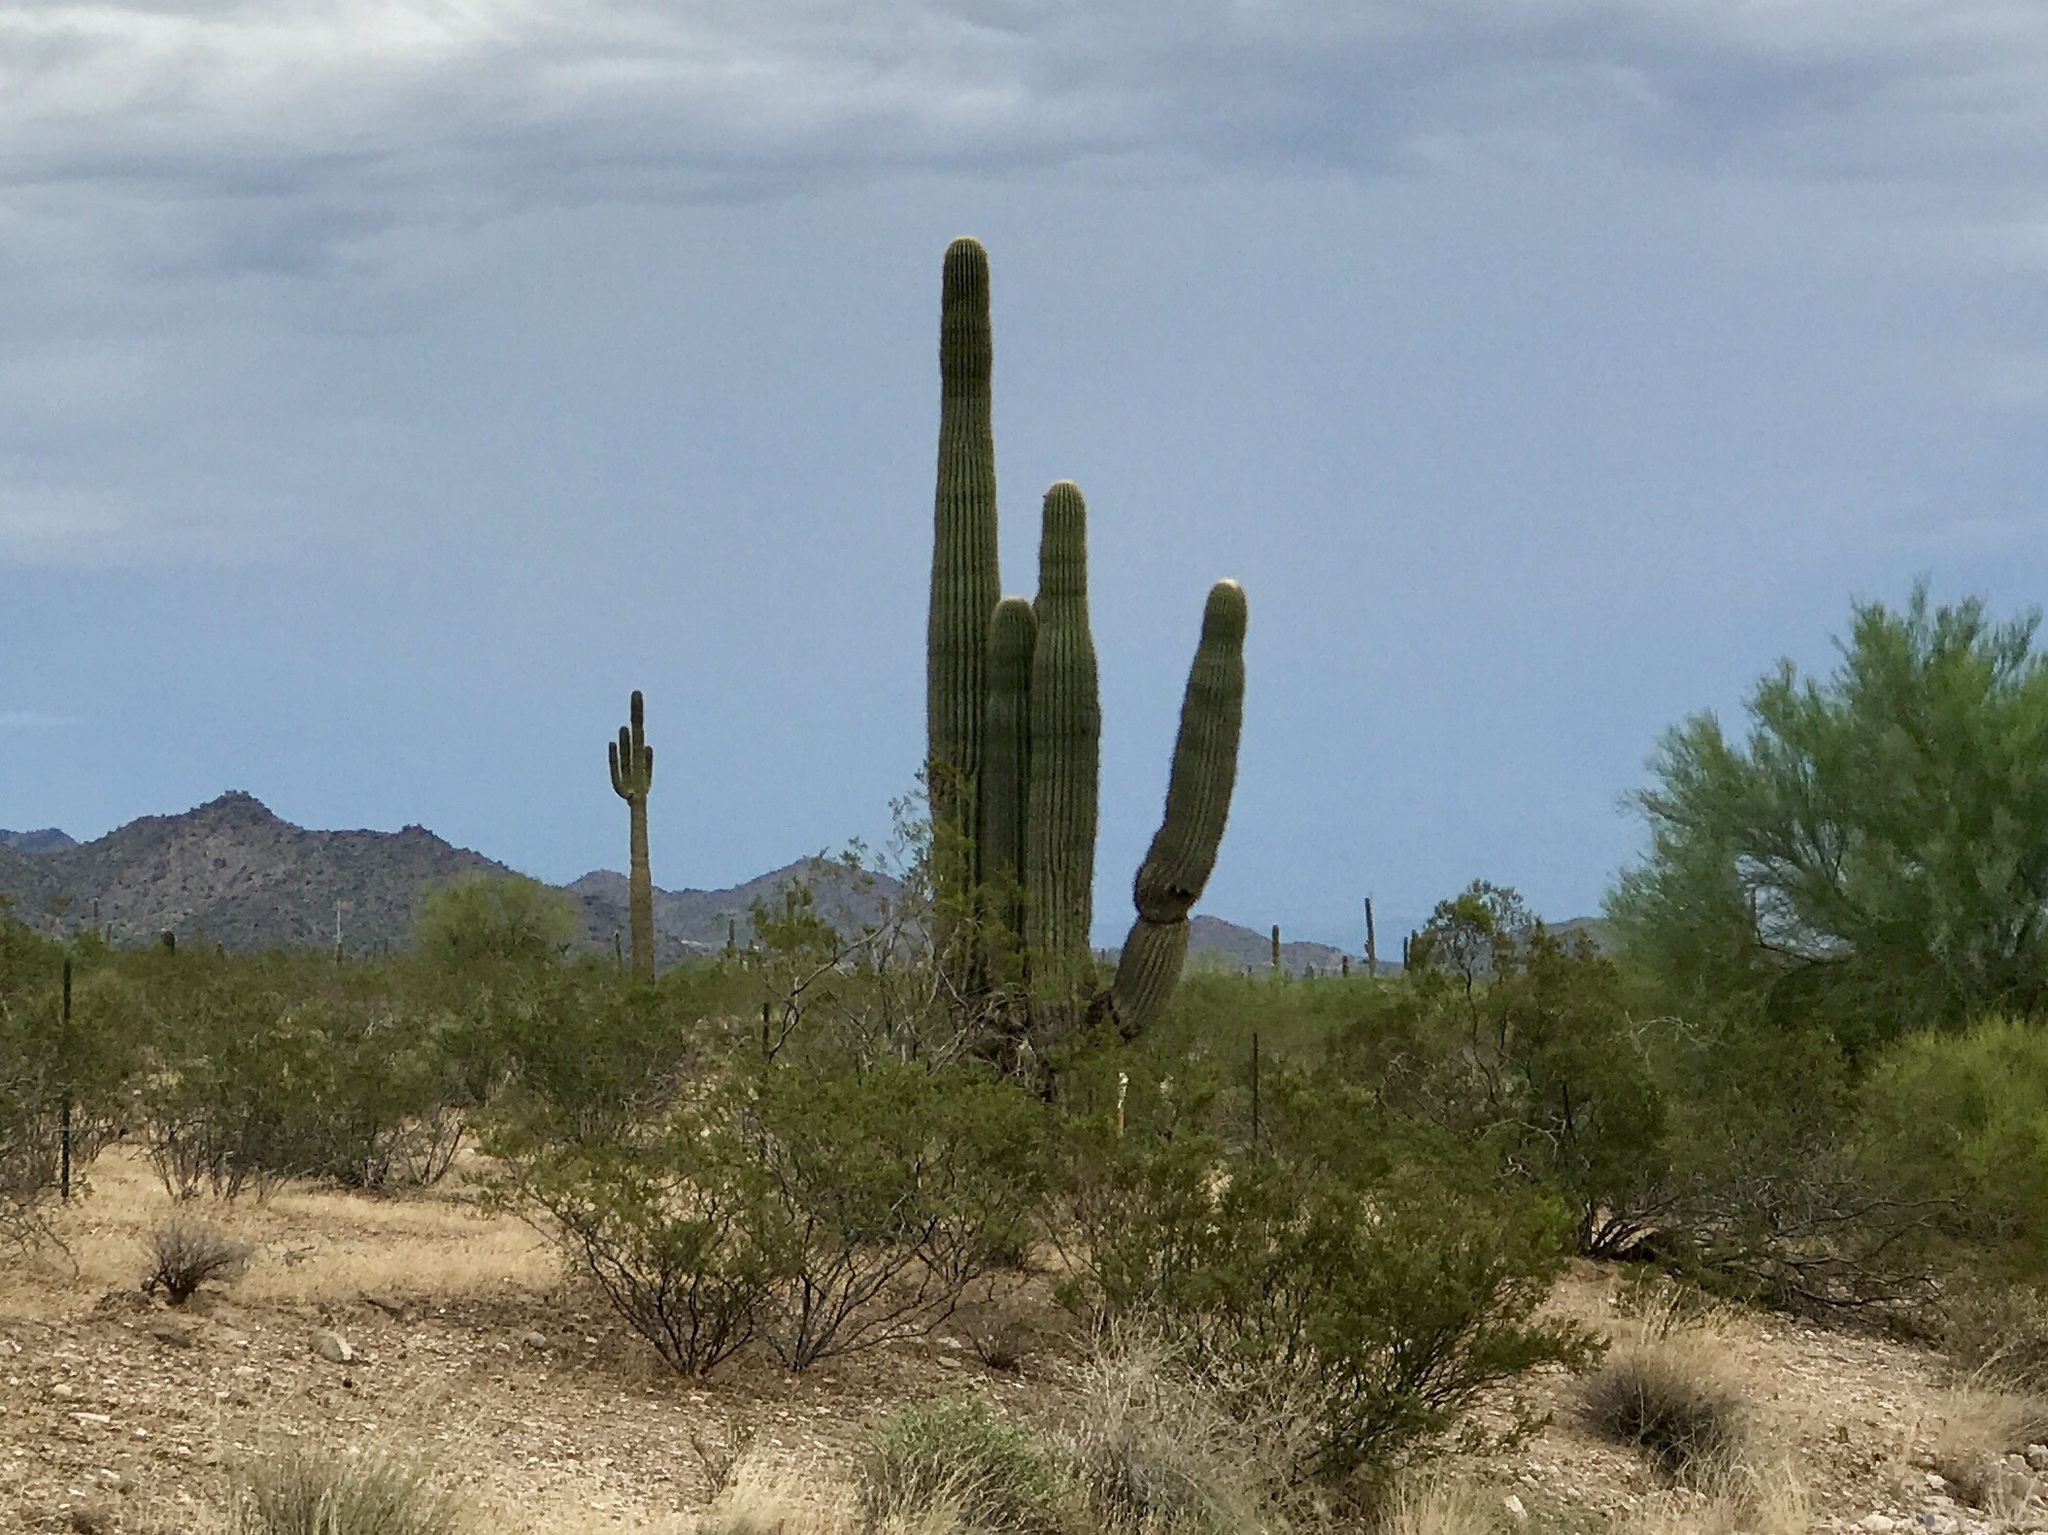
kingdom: Plantae
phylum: Tracheophyta
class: Magnoliopsida
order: Caryophyllales
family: Cactaceae
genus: Carnegiea
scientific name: Carnegiea gigantea
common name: Saguaro
